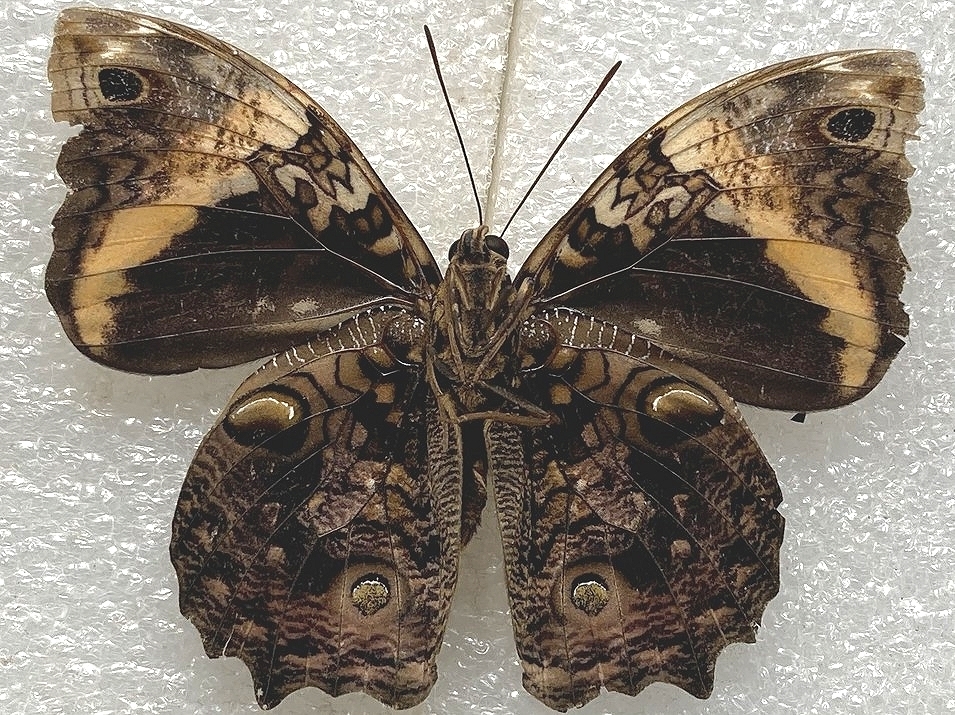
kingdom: Animalia
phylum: Arthropoda
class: Insecta
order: Lepidoptera
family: Nymphalidae
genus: Opsiphanes
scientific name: Opsiphanes quiteria
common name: Scalloped owlet
